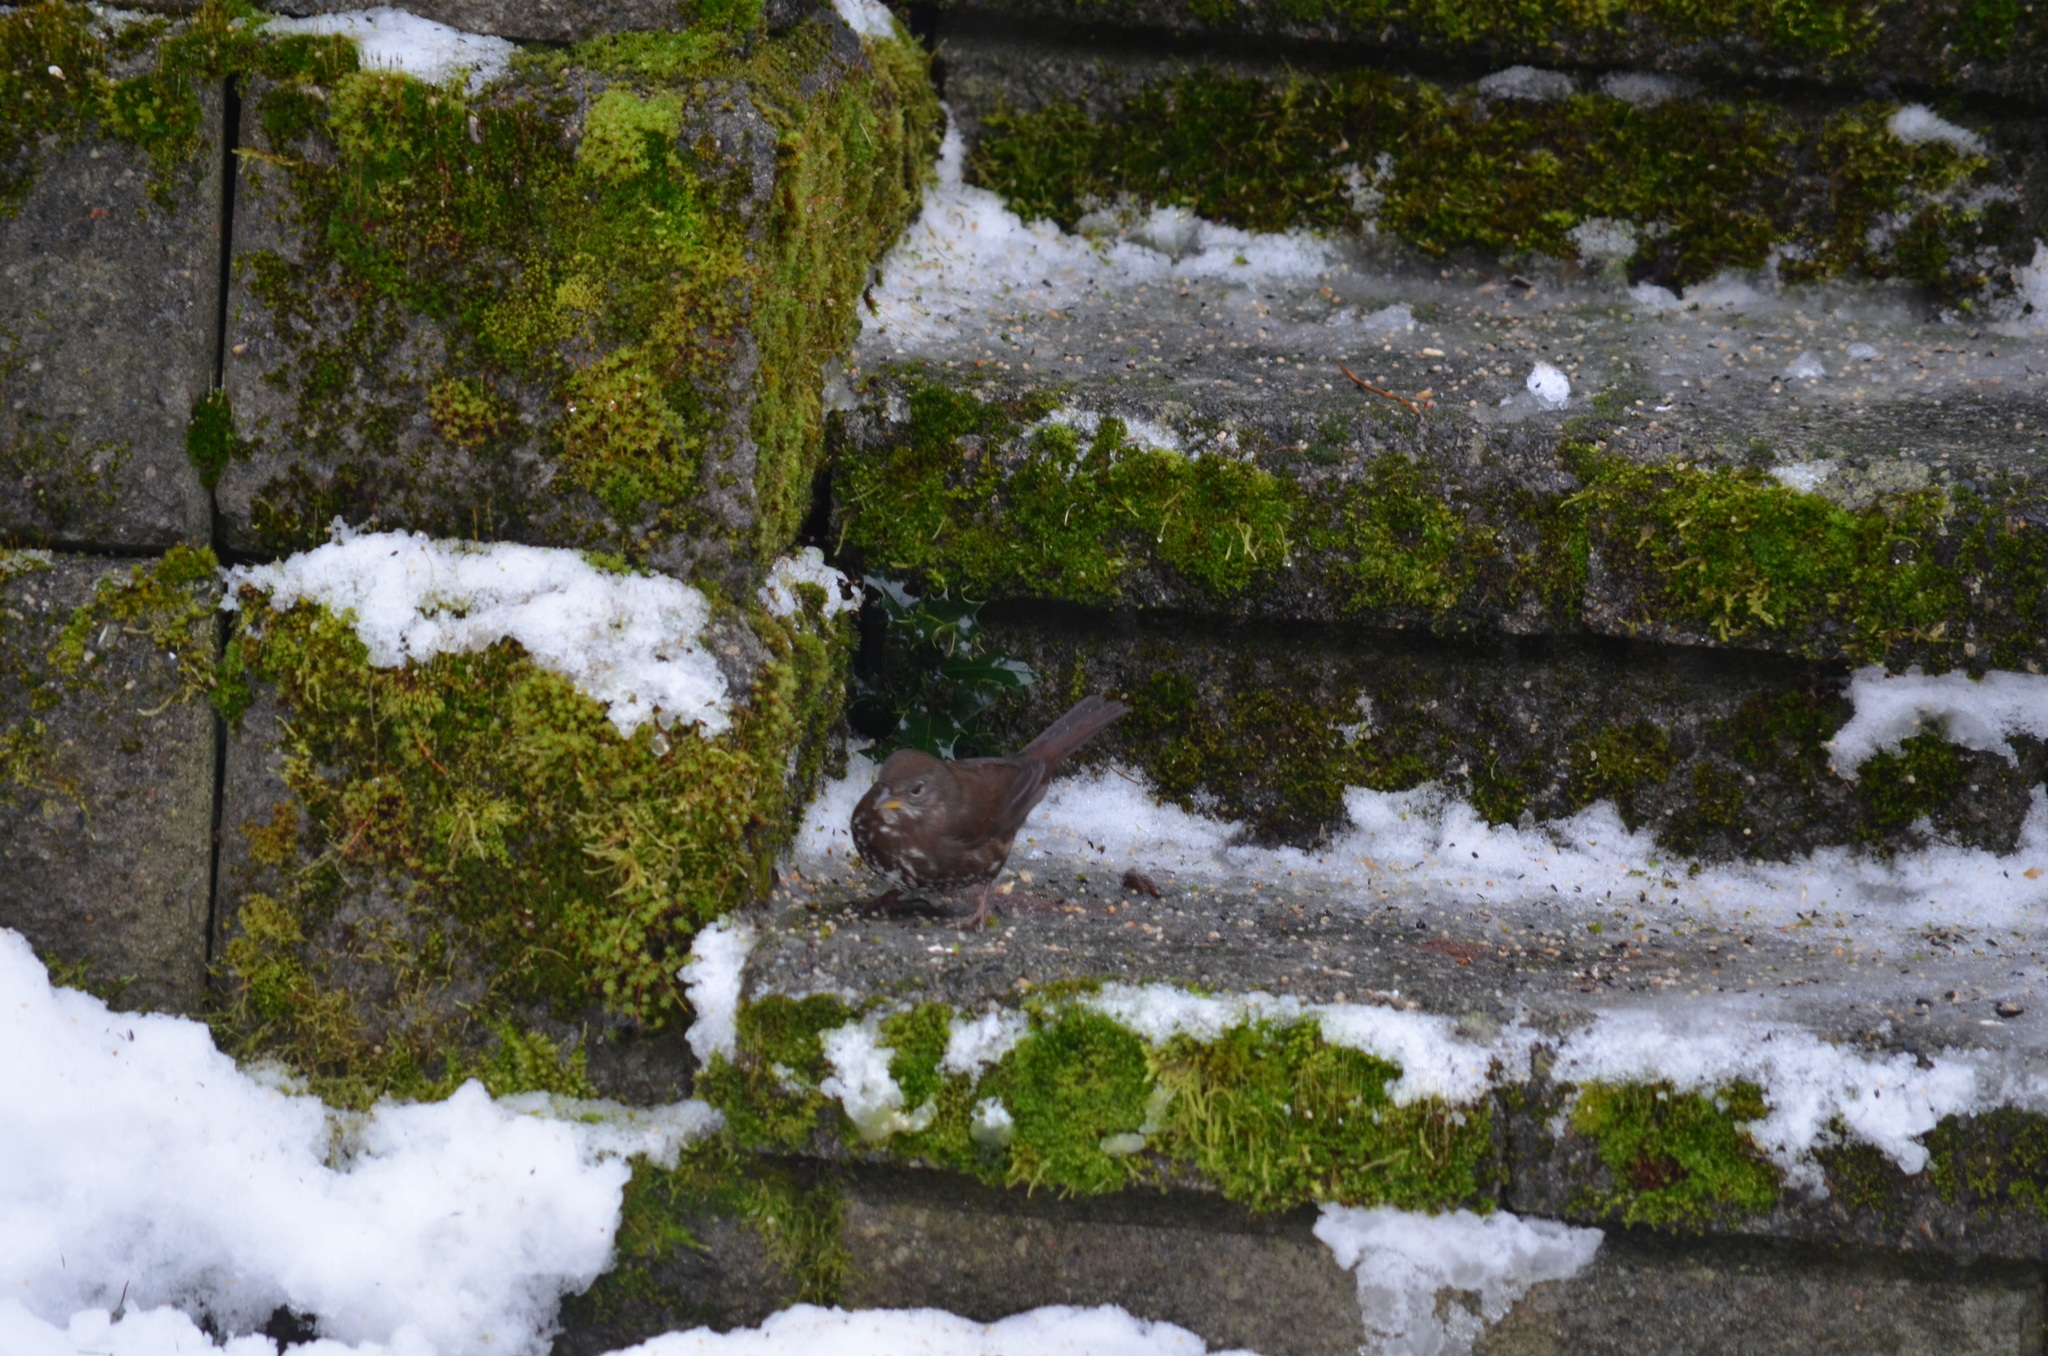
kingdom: Animalia
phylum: Chordata
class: Aves
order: Passeriformes
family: Passerellidae
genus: Passerella
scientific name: Passerella iliaca
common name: Fox sparrow
